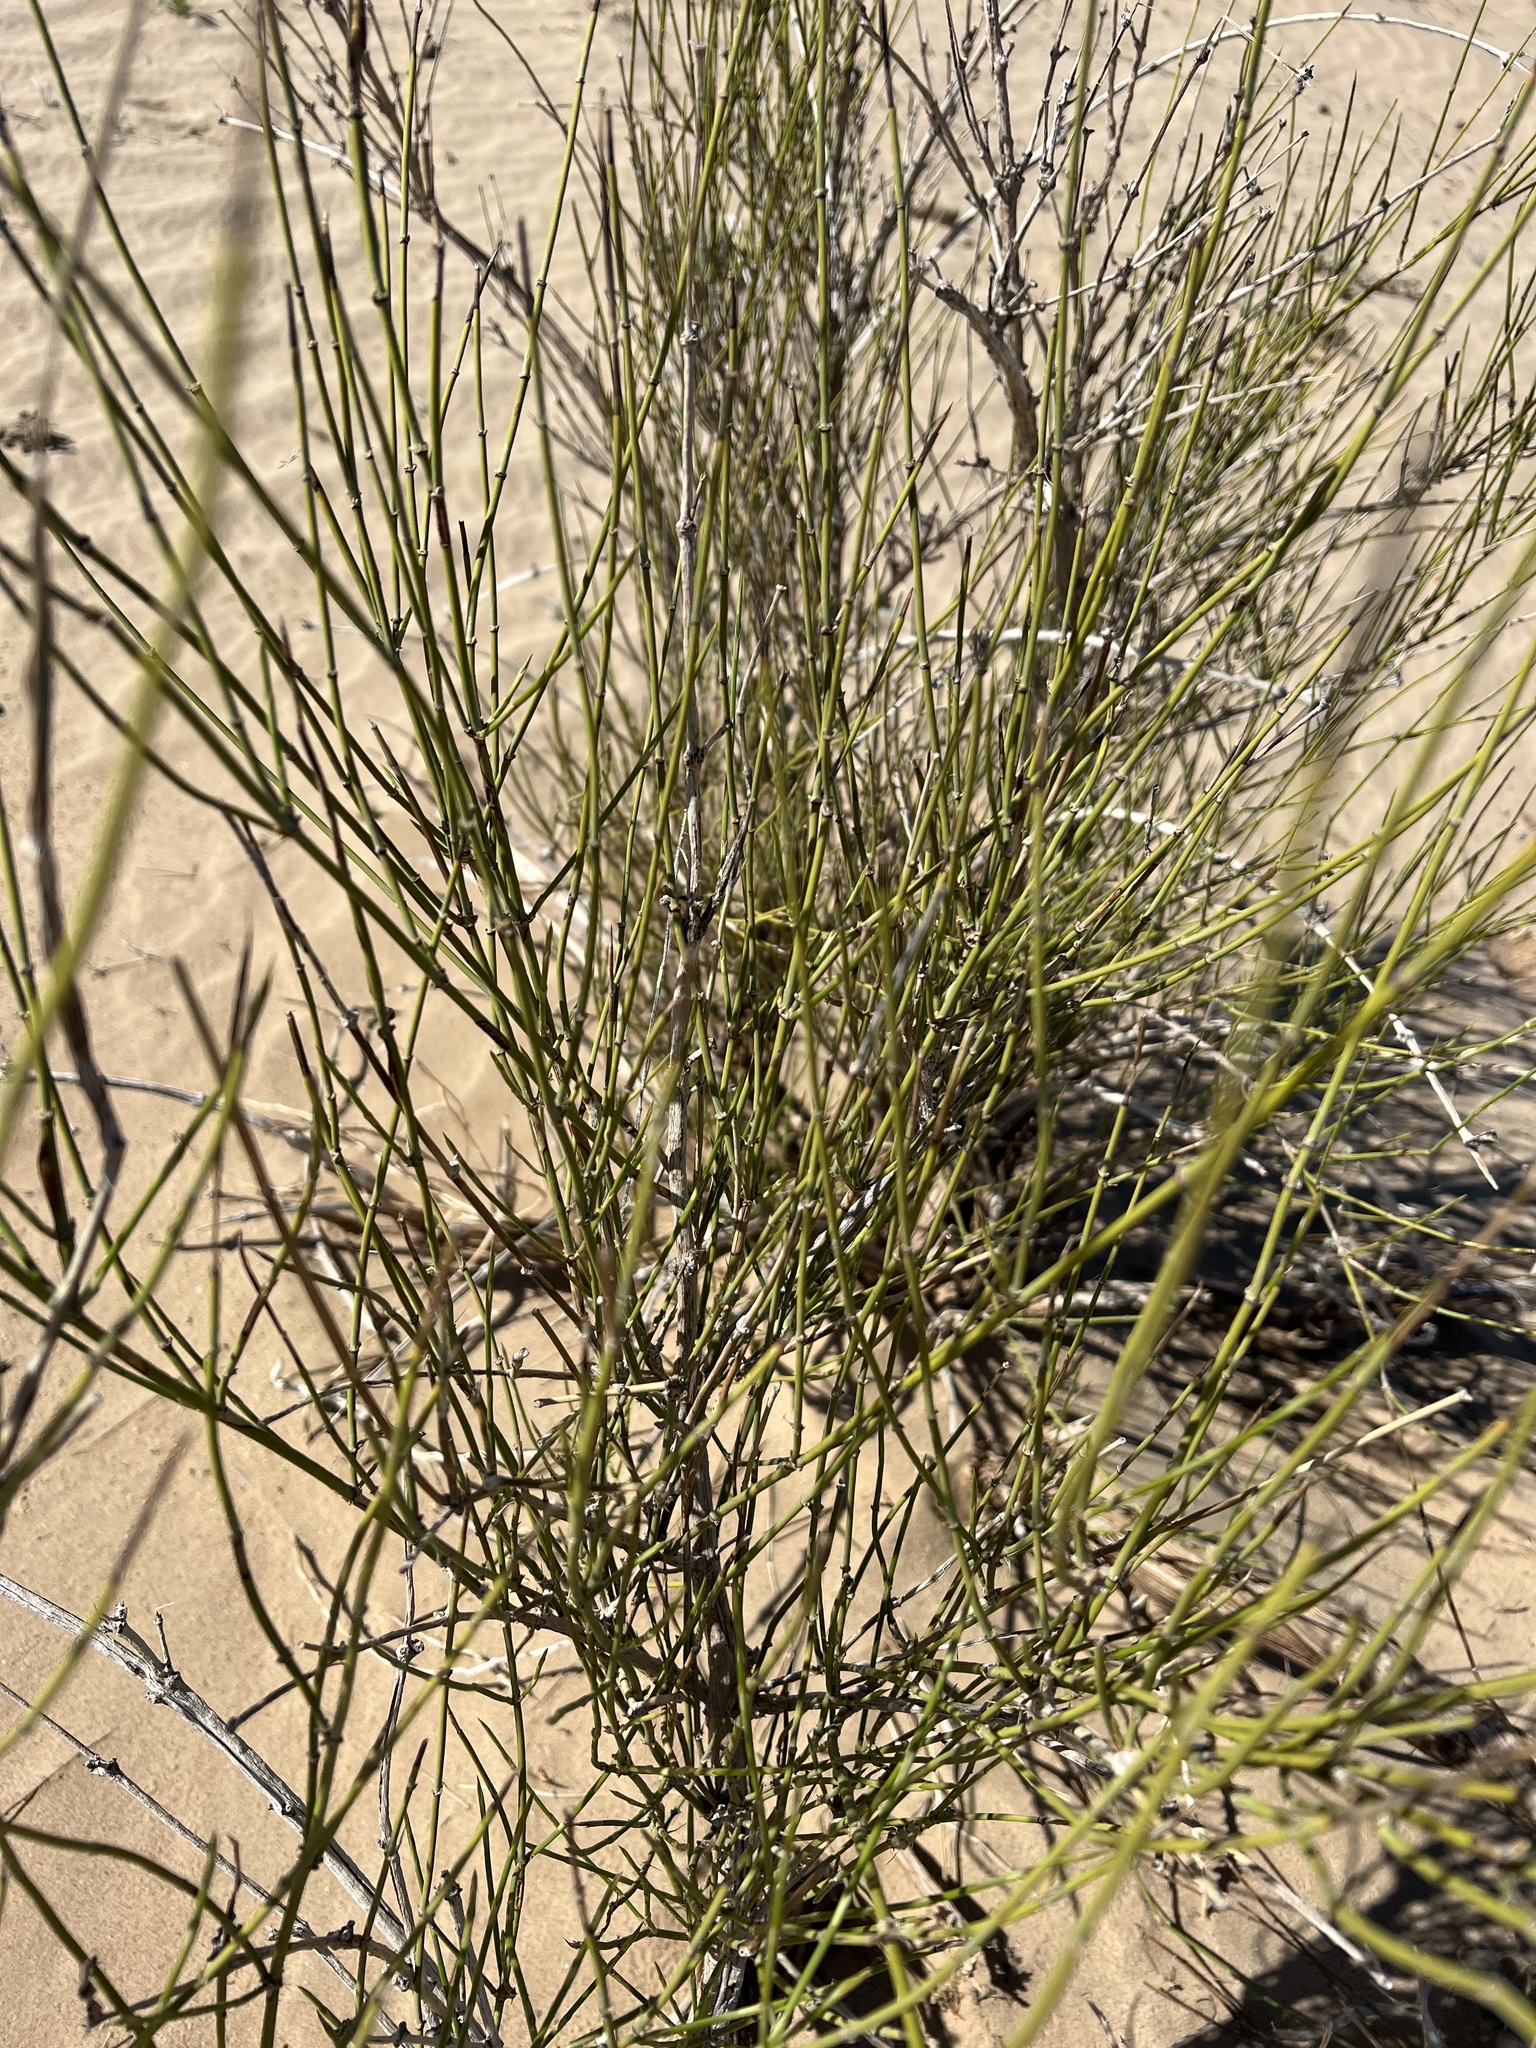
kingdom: Plantae
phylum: Tracheophyta
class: Gnetopsida
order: Ephedrales
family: Ephedraceae
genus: Ephedra
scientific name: Ephedra trifurca
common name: Mexican-tea
